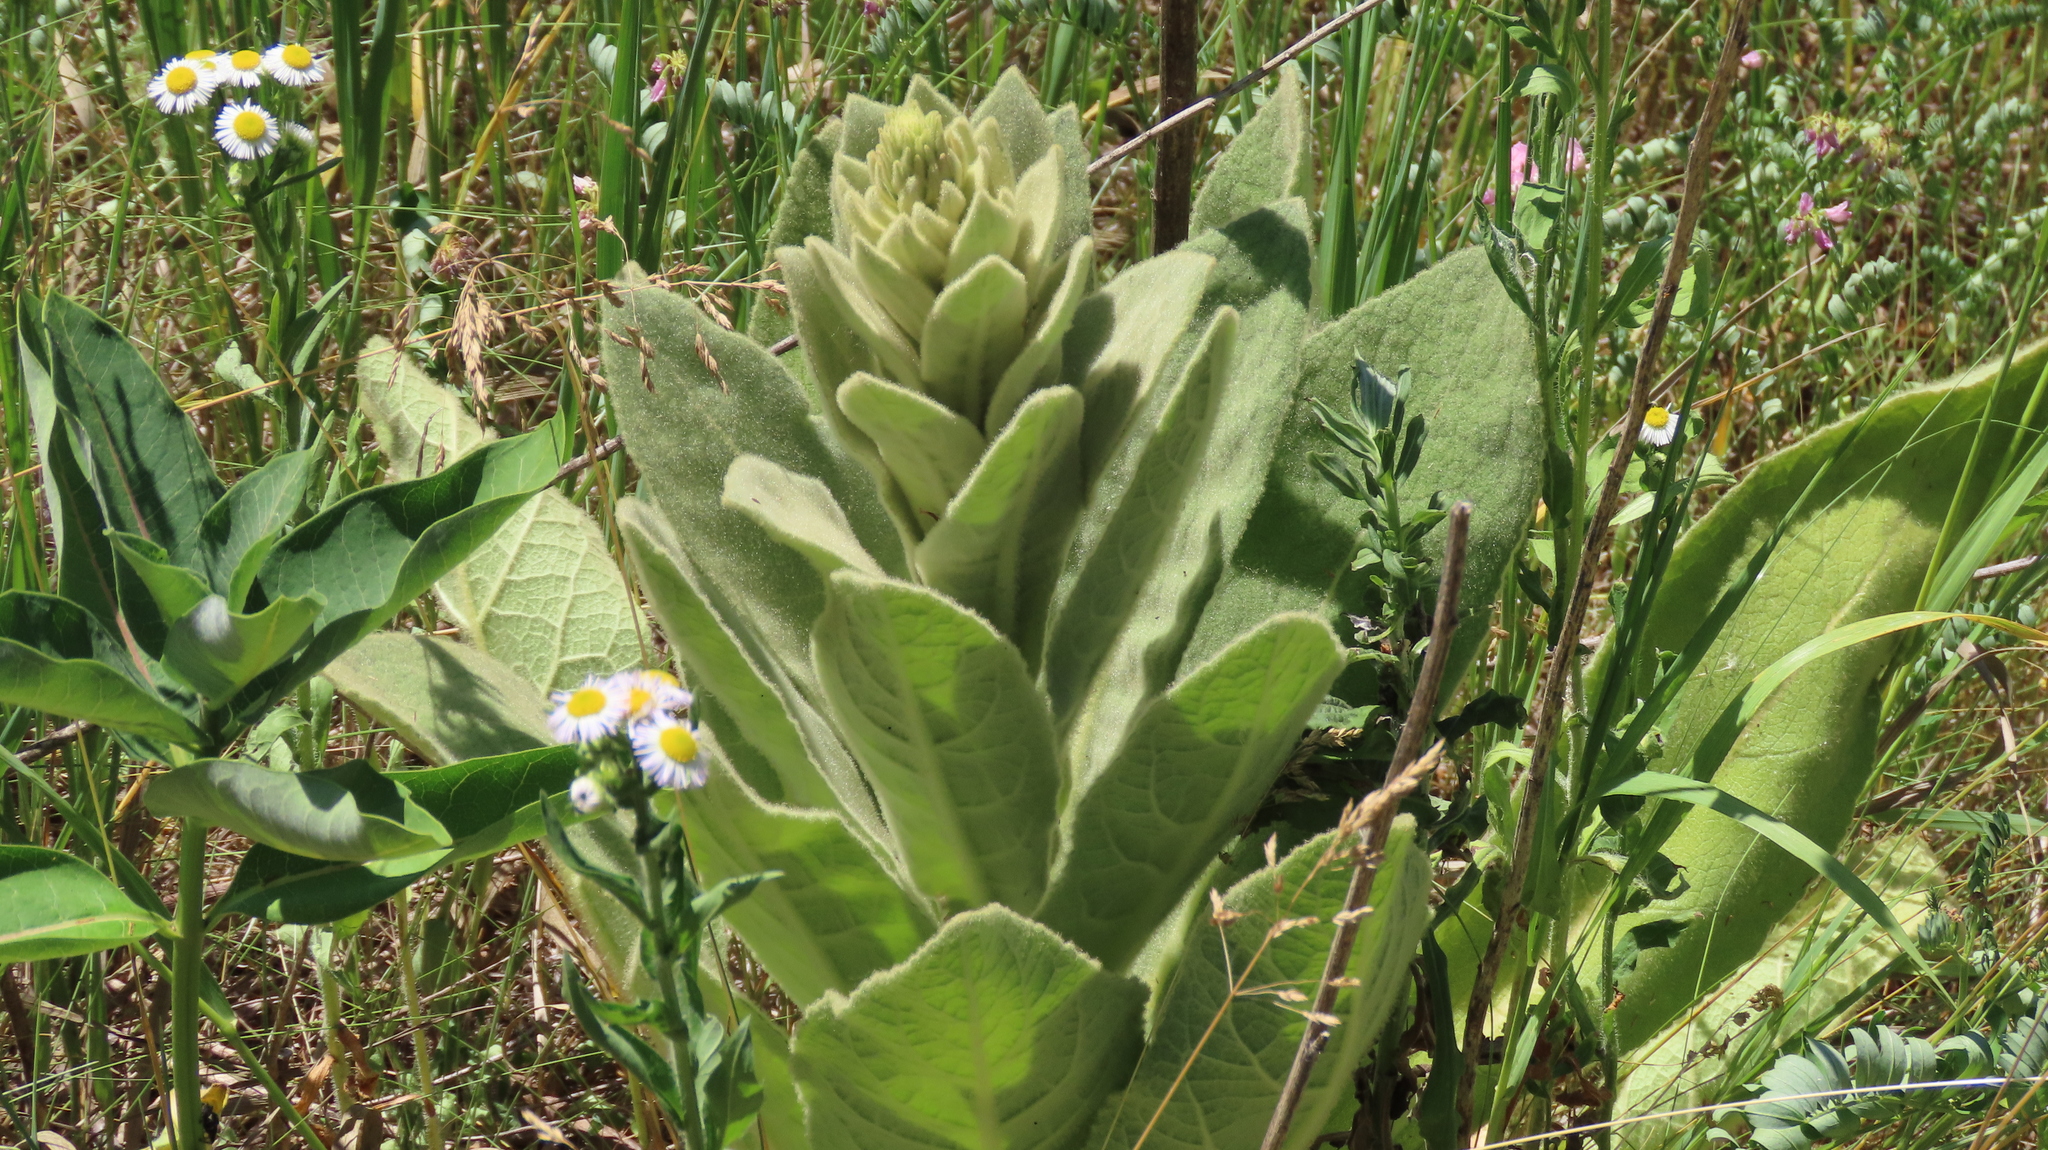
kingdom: Plantae
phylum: Tracheophyta
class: Magnoliopsida
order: Lamiales
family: Scrophulariaceae
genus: Verbascum
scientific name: Verbascum thapsus
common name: Common mullein
